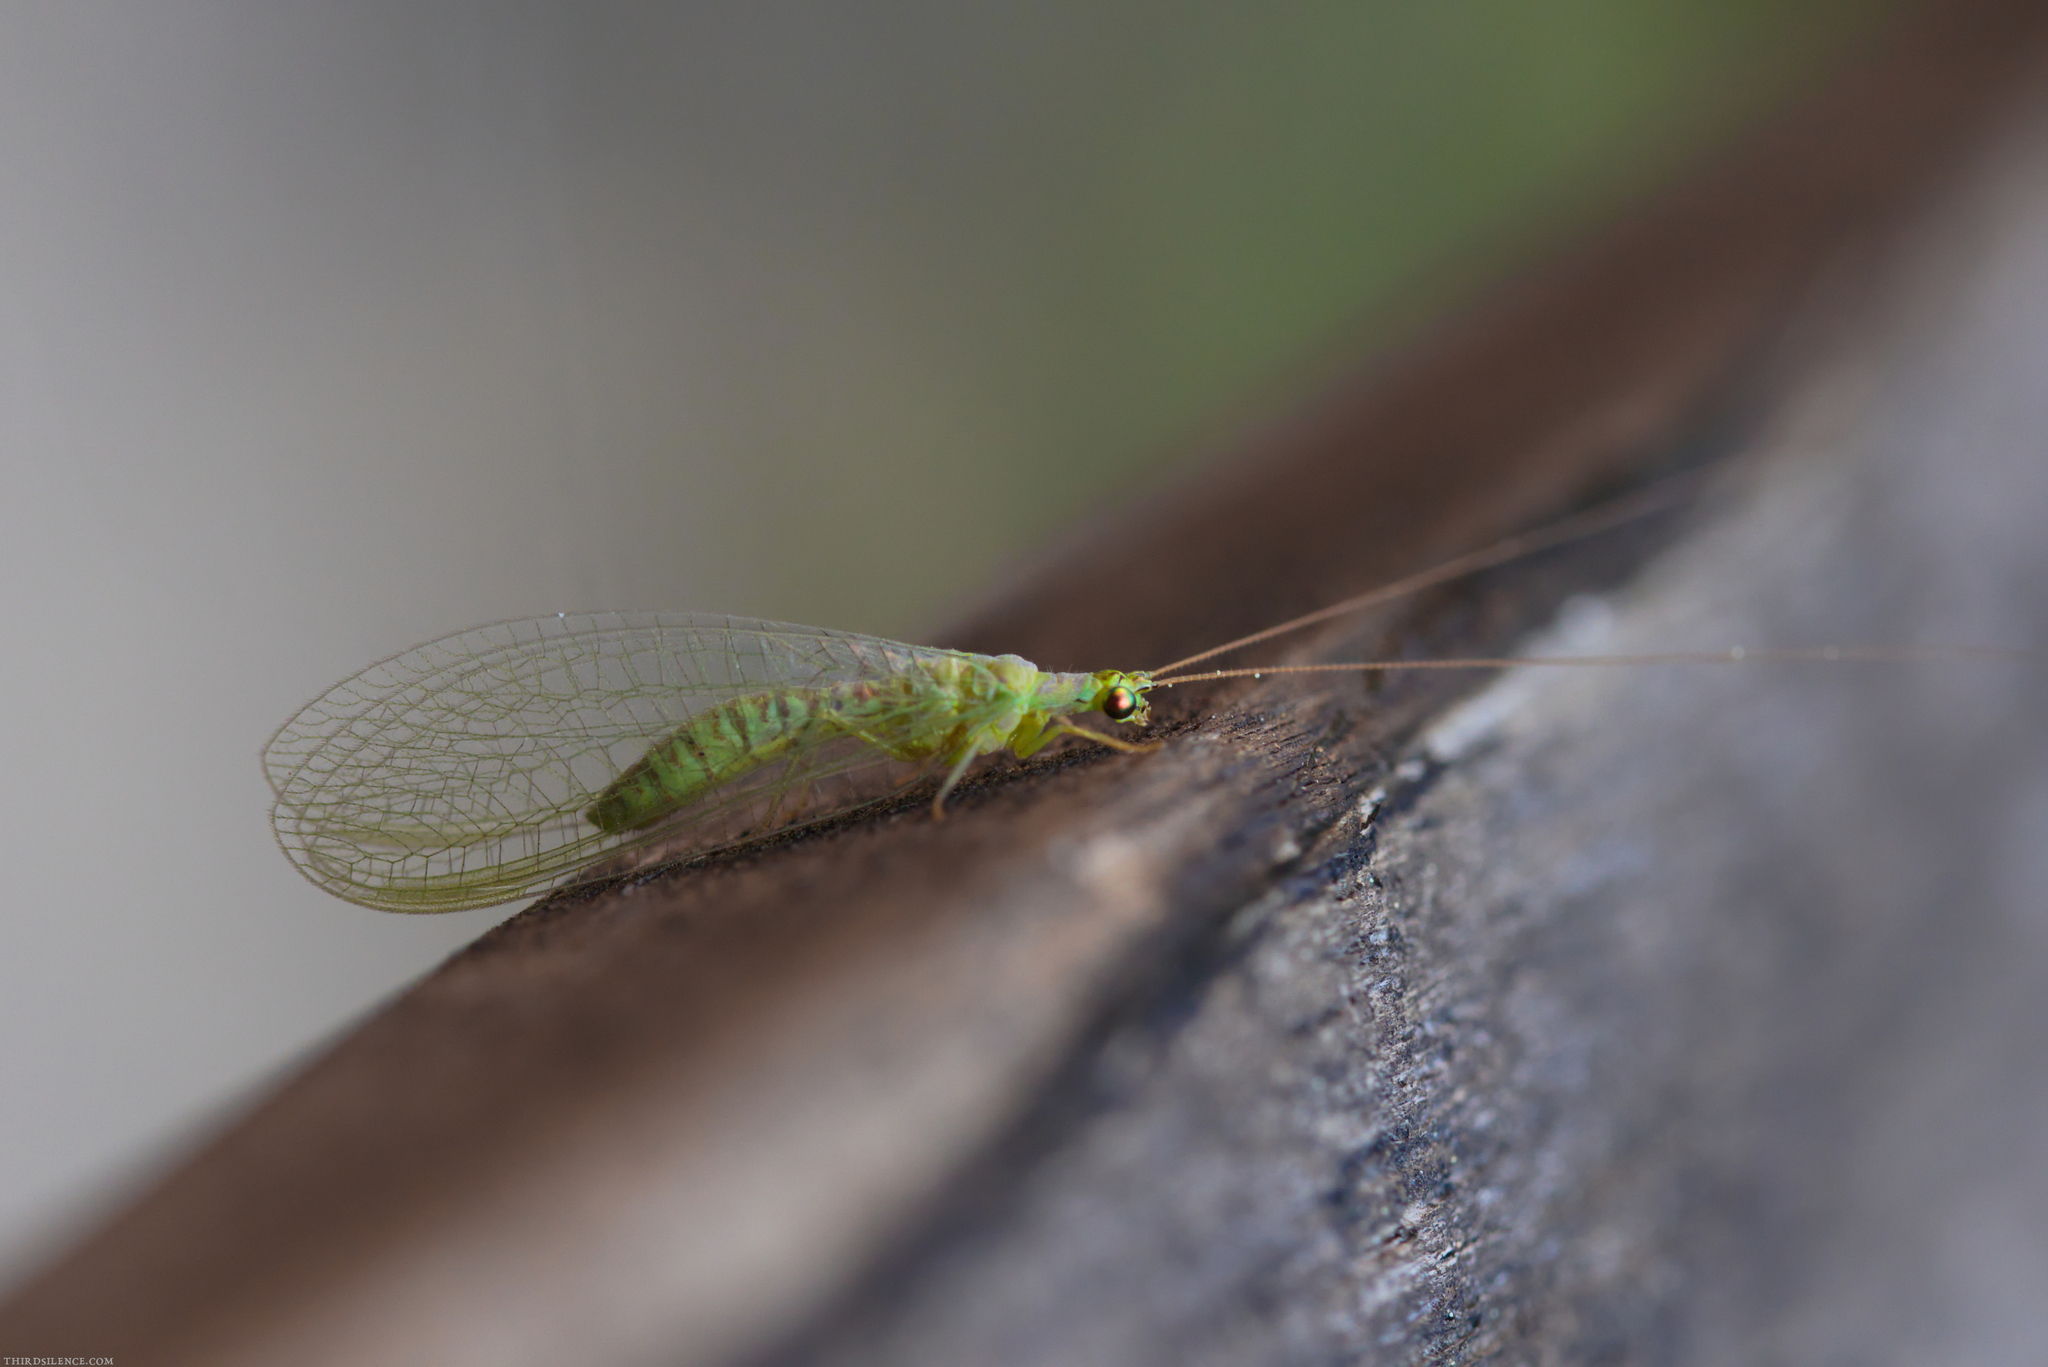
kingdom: Animalia
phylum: Arthropoda
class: Insecta
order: Neuroptera
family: Chrysopidae
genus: Mallada
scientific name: Mallada signatus
